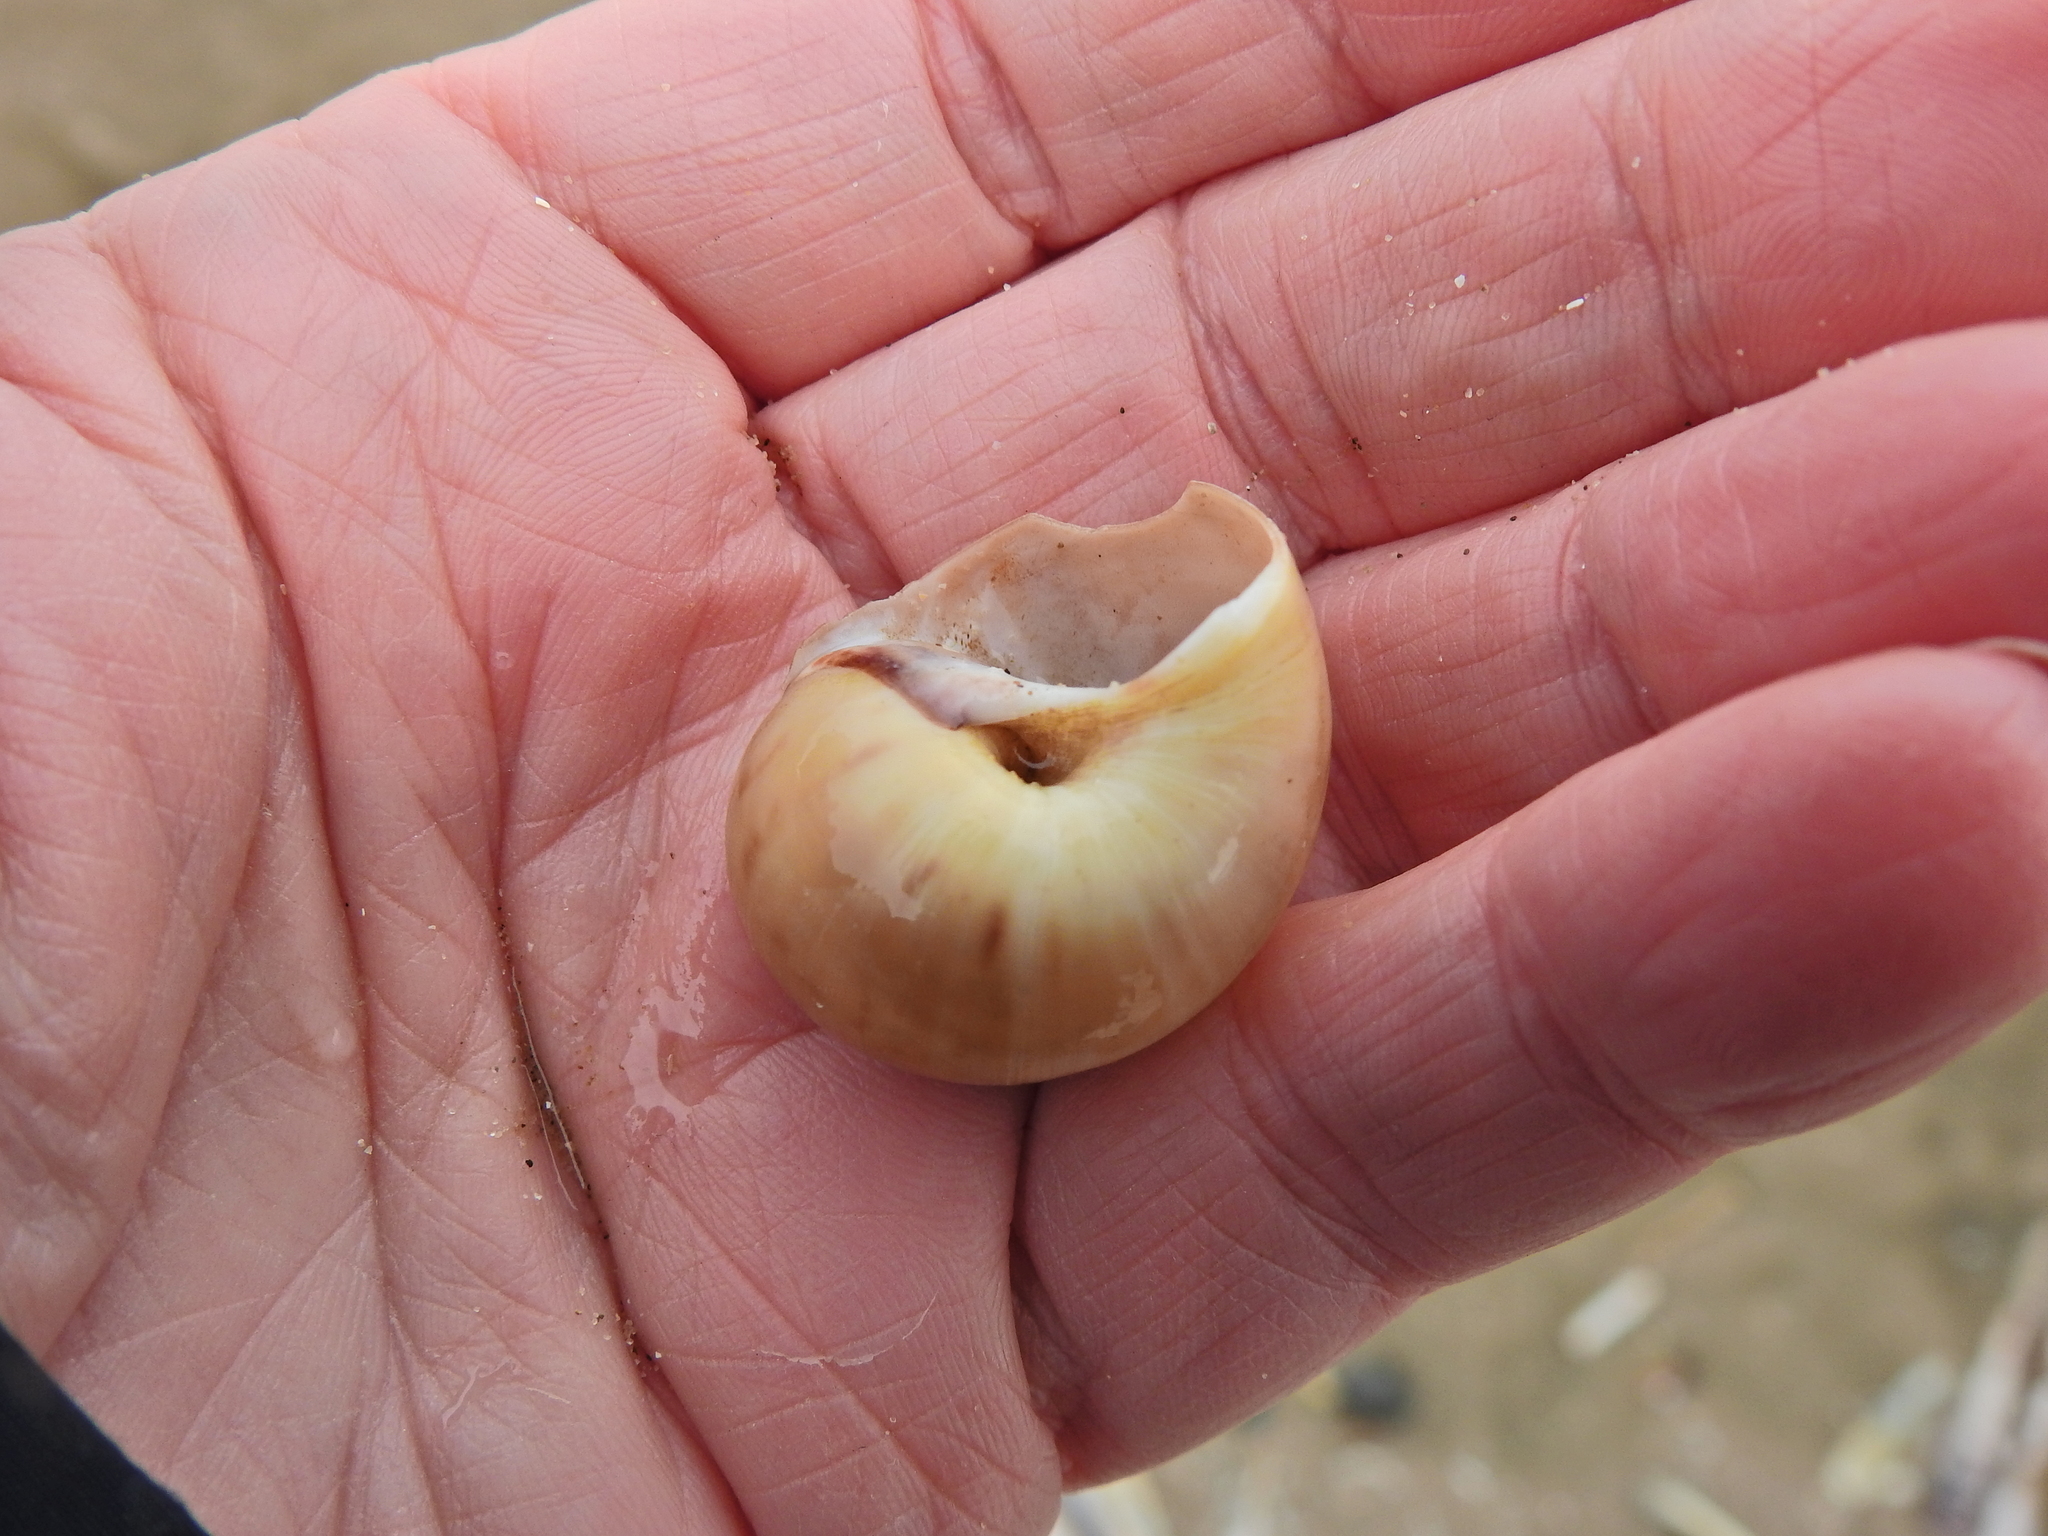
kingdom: Animalia
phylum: Mollusca
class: Gastropoda
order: Littorinimorpha
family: Naticidae
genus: Euspira
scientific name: Euspira catena
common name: Necklace shell
